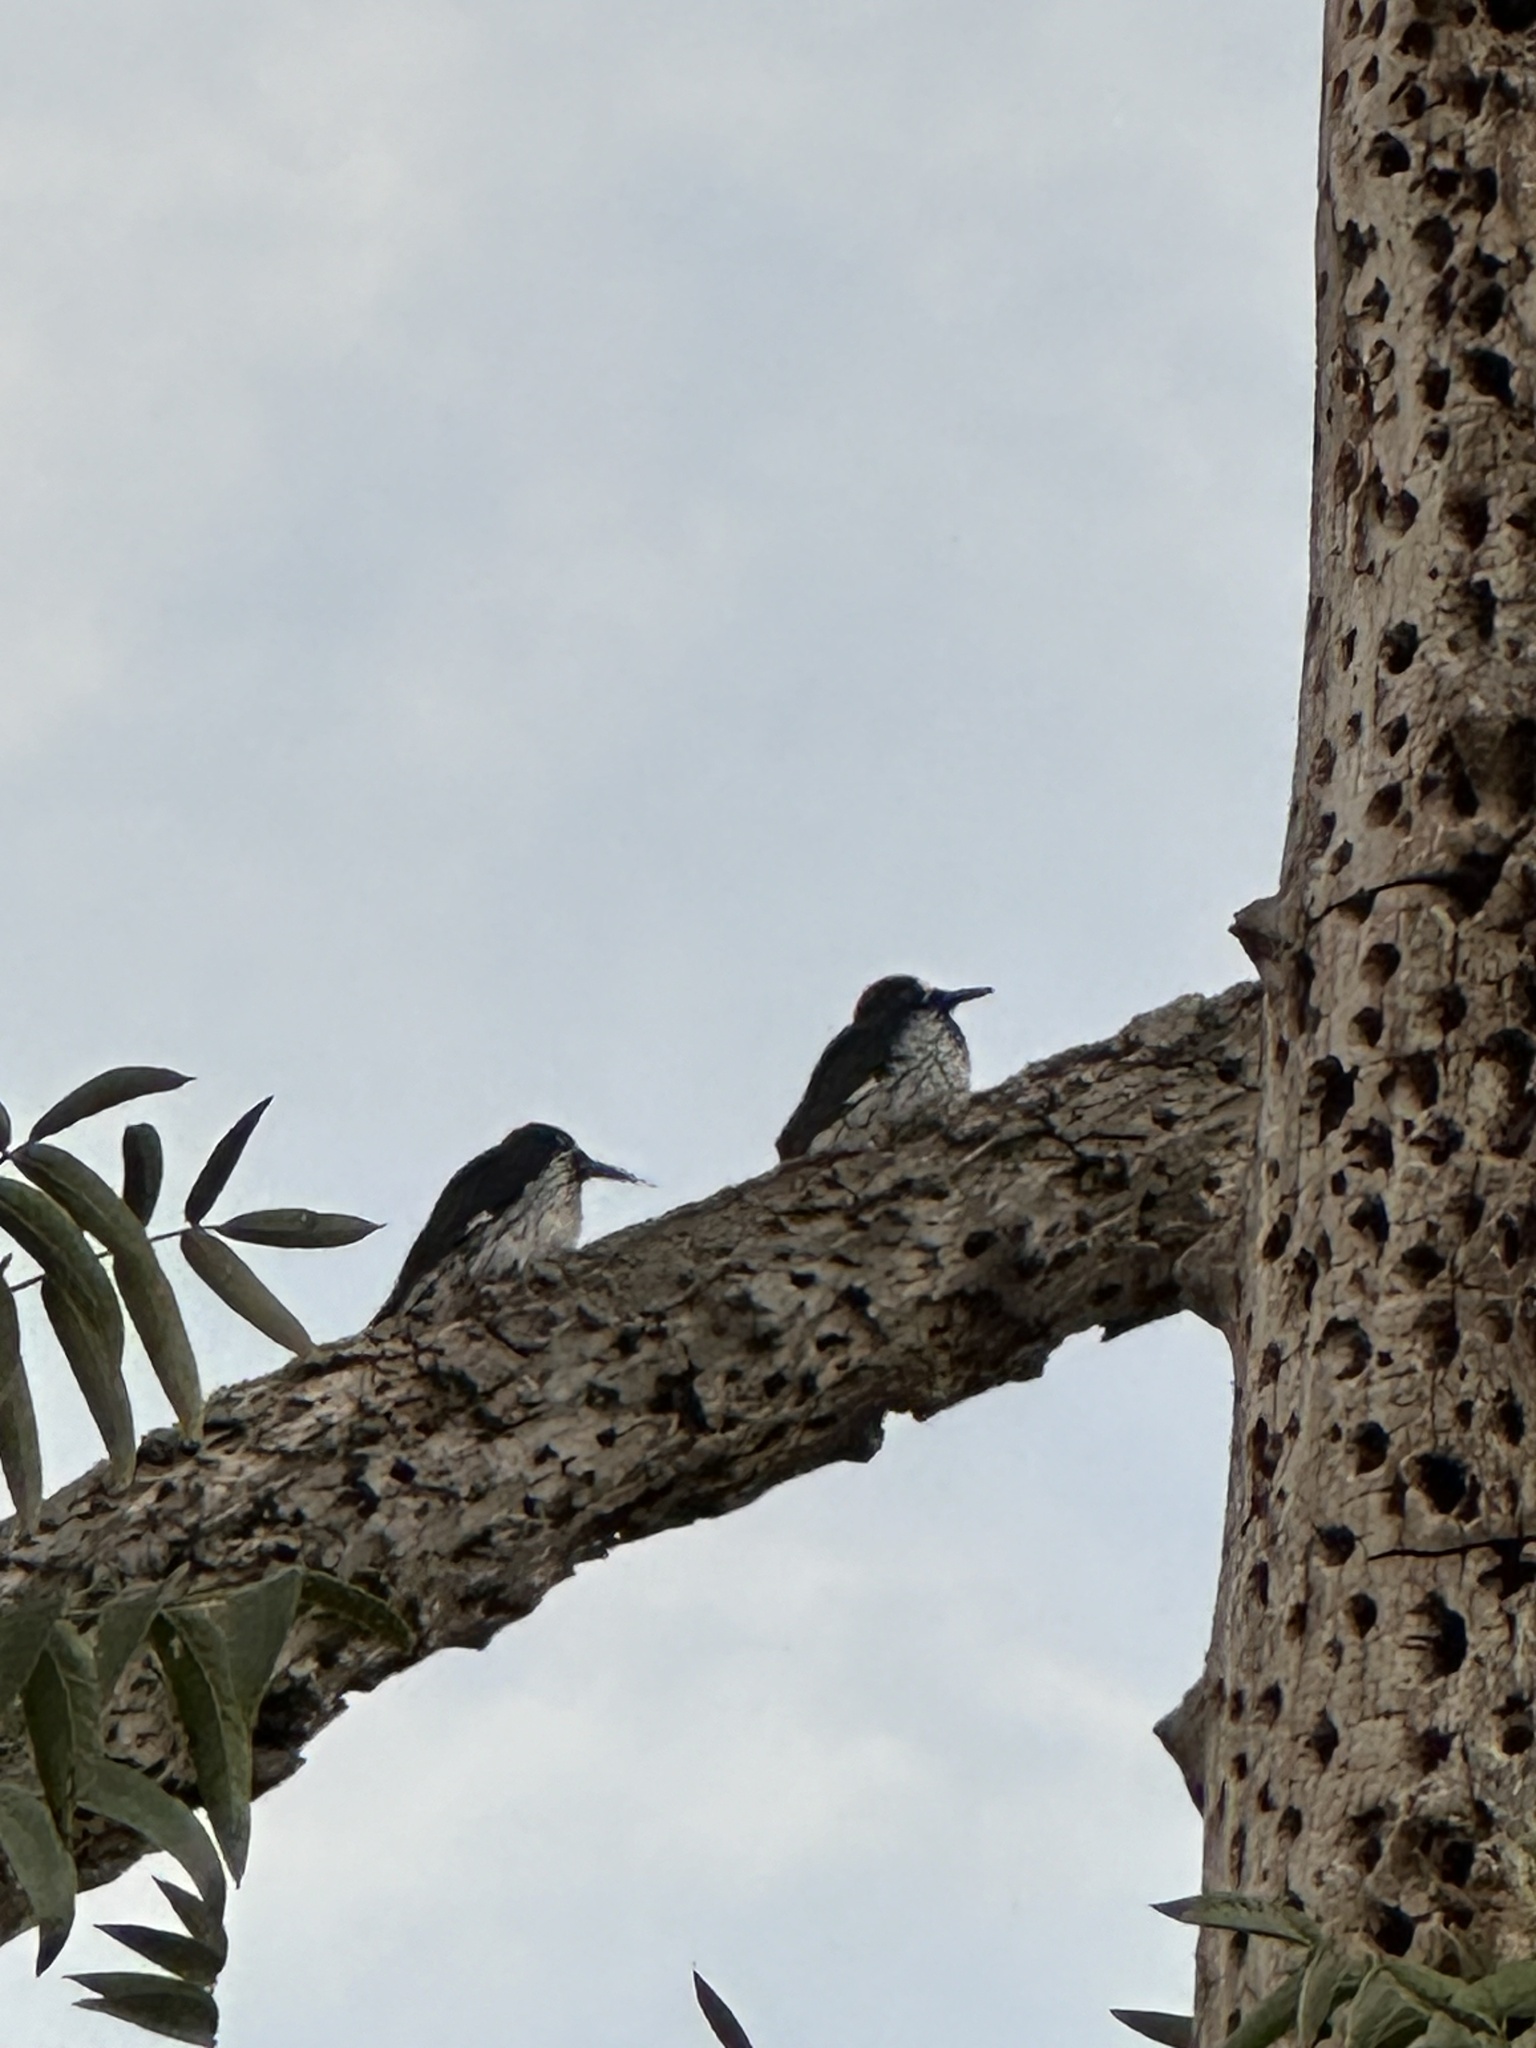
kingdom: Animalia
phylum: Chordata
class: Aves
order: Piciformes
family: Picidae
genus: Melanerpes
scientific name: Melanerpes formicivorus
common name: Acorn woodpecker
